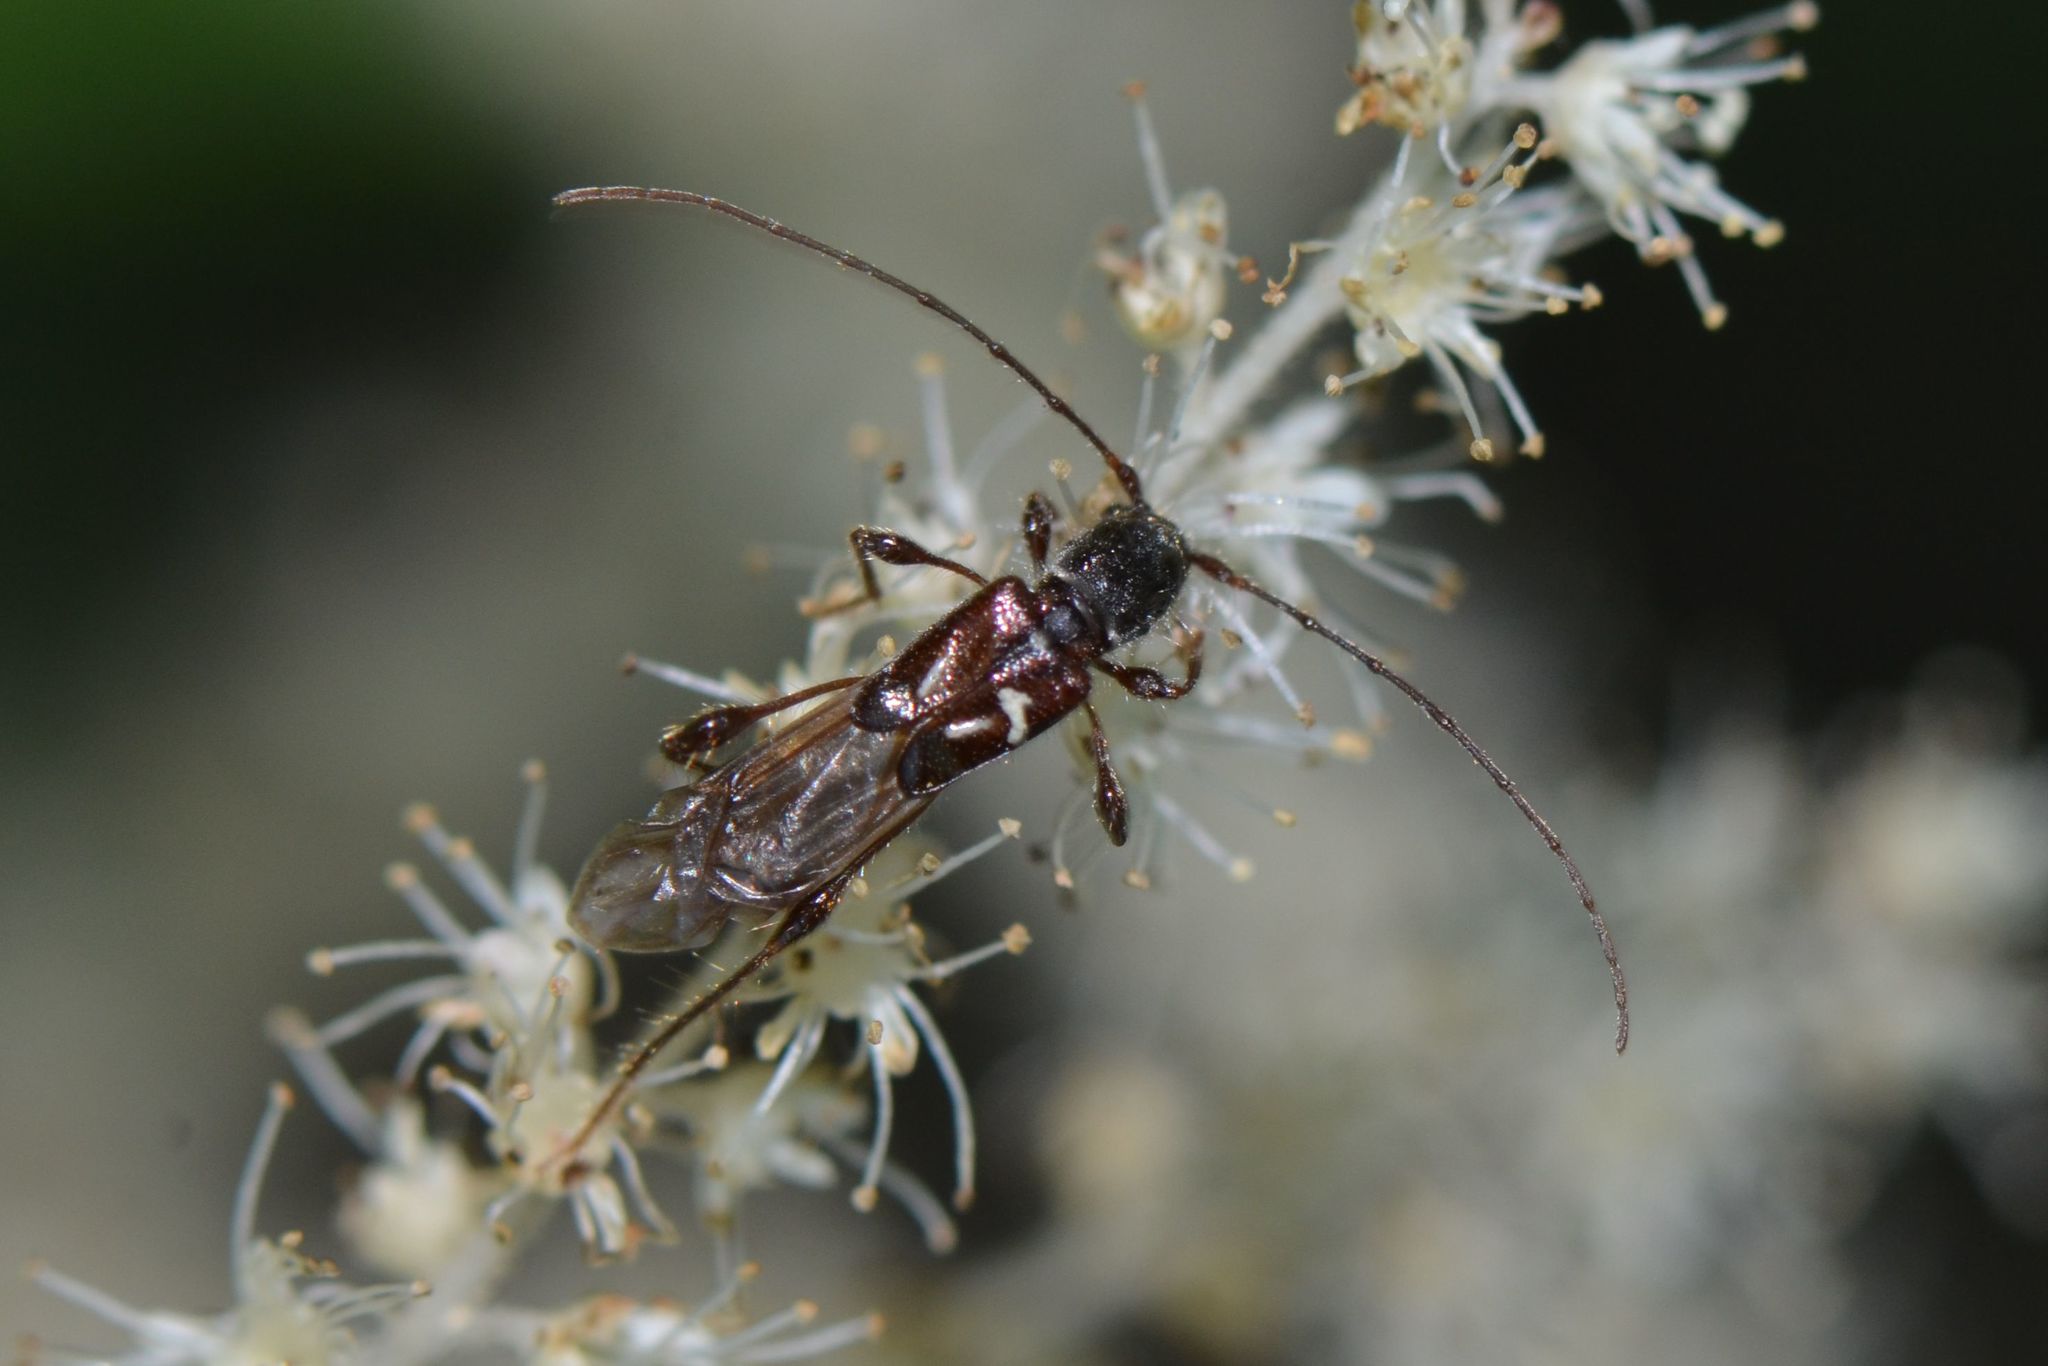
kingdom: Animalia
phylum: Arthropoda
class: Insecta
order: Coleoptera
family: Cerambycidae
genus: Molorchus
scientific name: Molorchus minor
